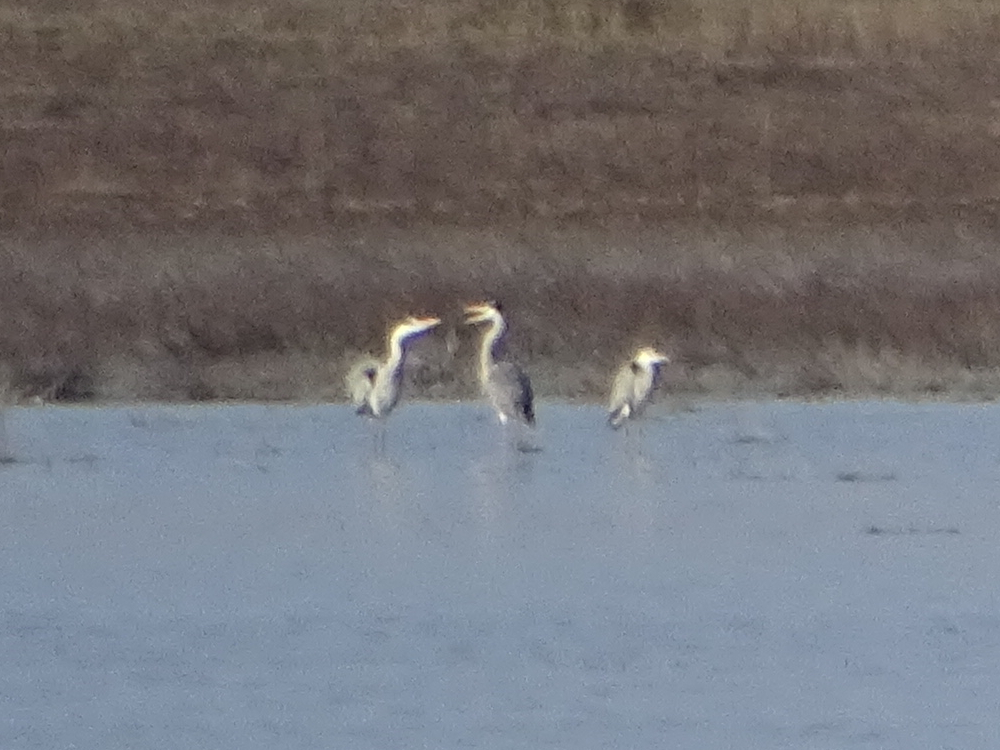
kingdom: Animalia
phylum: Chordata
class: Aves
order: Pelecaniformes
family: Ardeidae
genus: Ardea
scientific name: Ardea cinerea
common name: Grey heron
